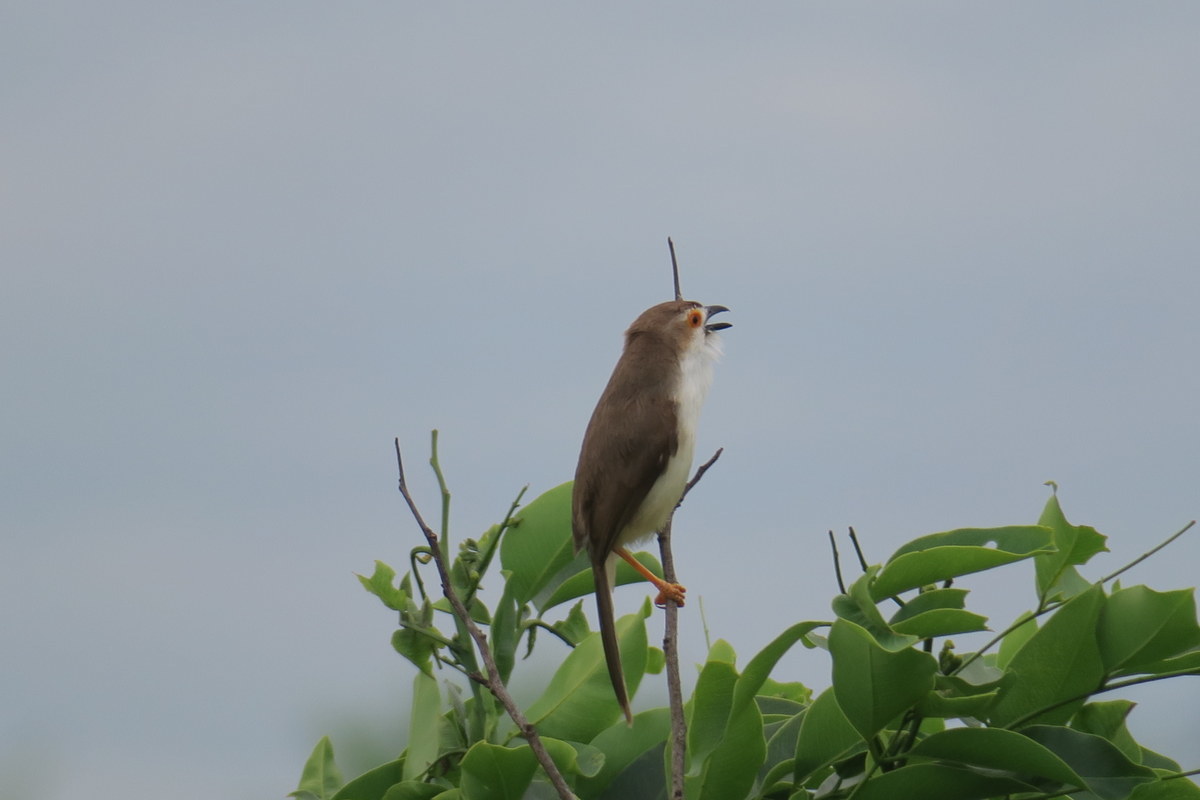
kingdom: Animalia
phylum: Chordata
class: Aves
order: Passeriformes
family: Sylviidae
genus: Chrysomma
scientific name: Chrysomma sinense
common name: Yellow-eyed babbler
